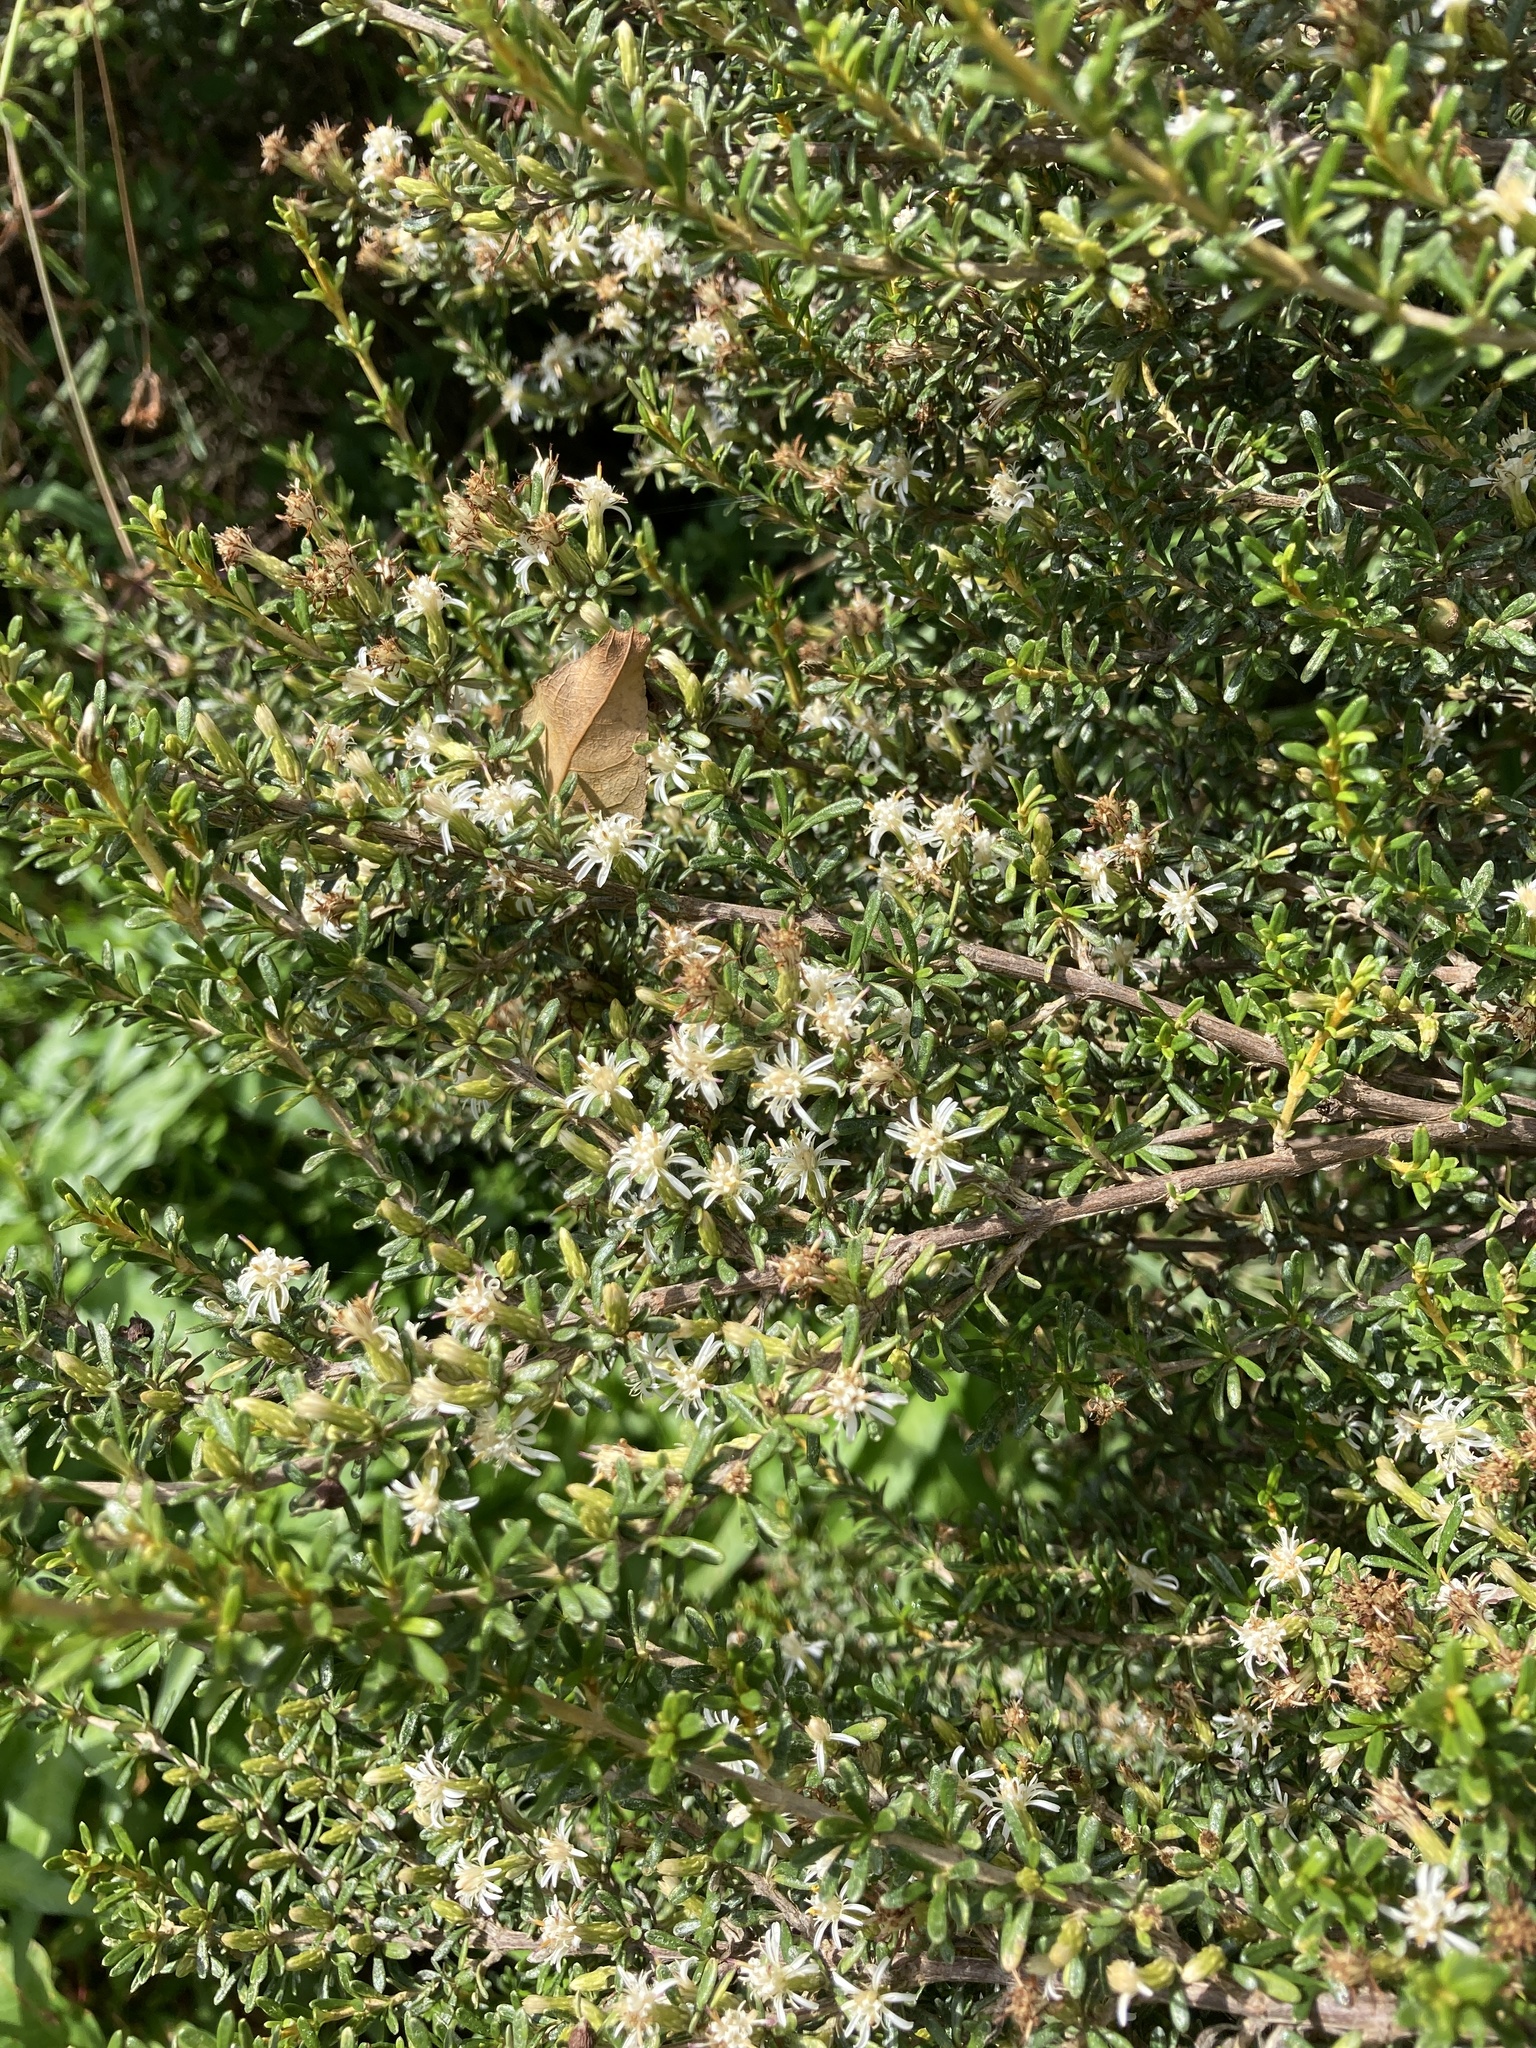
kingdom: Plantae
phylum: Tracheophyta
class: Magnoliopsida
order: Asterales
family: Asteraceae
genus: Olearia
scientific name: Olearia solandri
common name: Coastal daisybush
